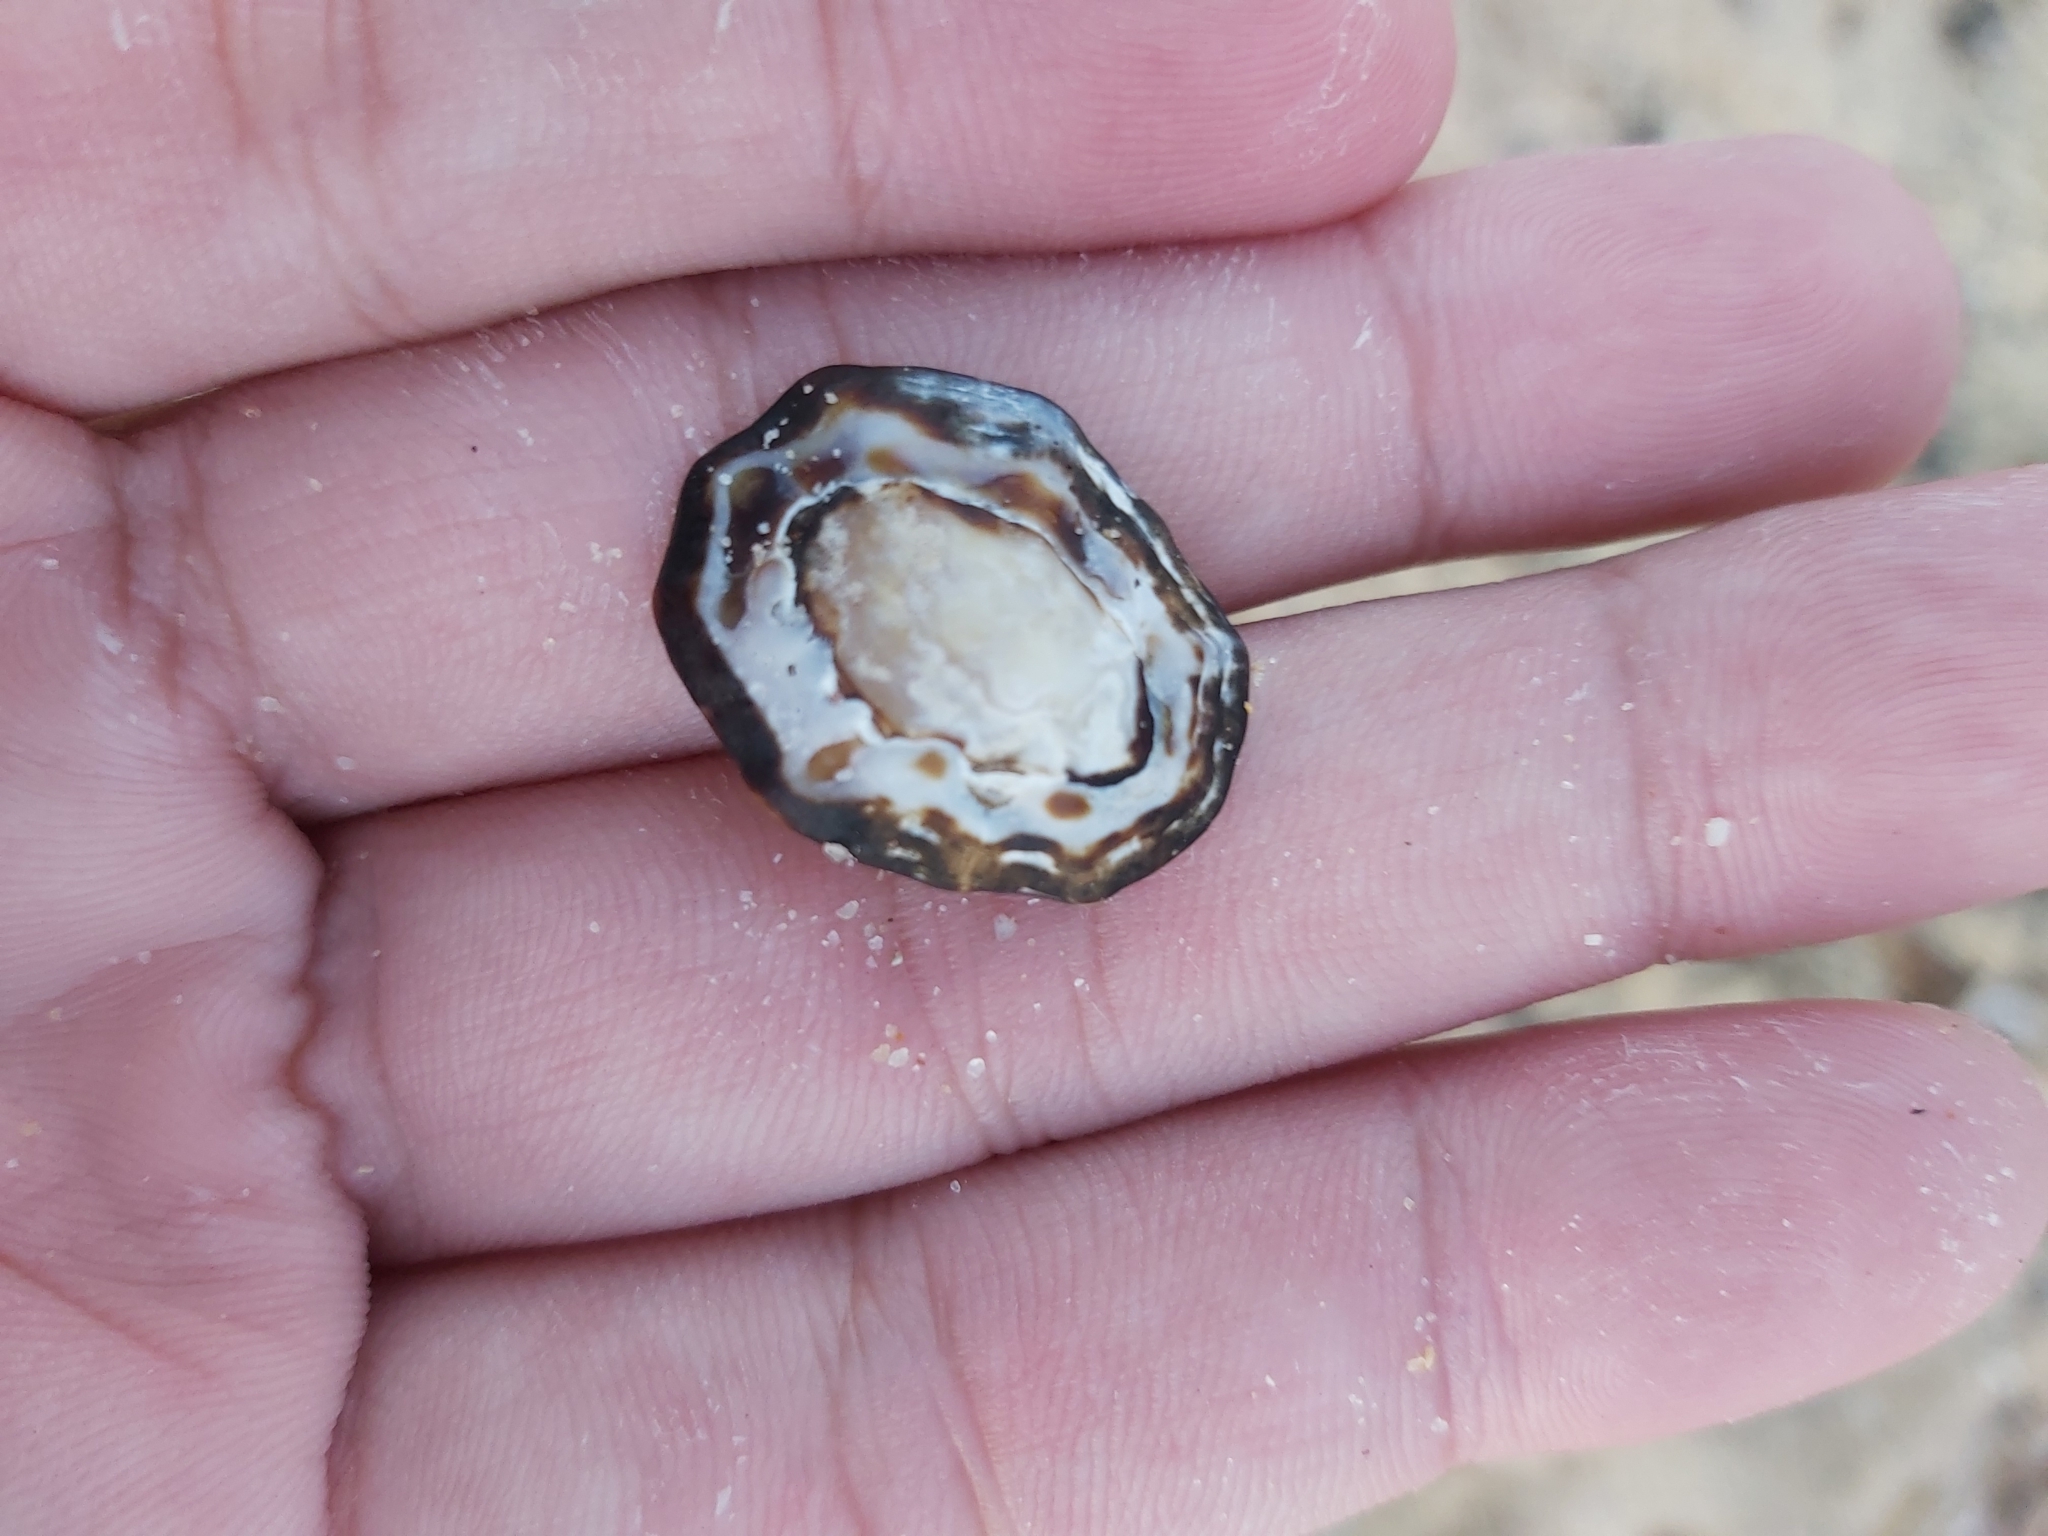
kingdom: Animalia
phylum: Mollusca
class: Gastropoda
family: Lottiidae
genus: Patelloida
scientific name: Patelloida alticostata
